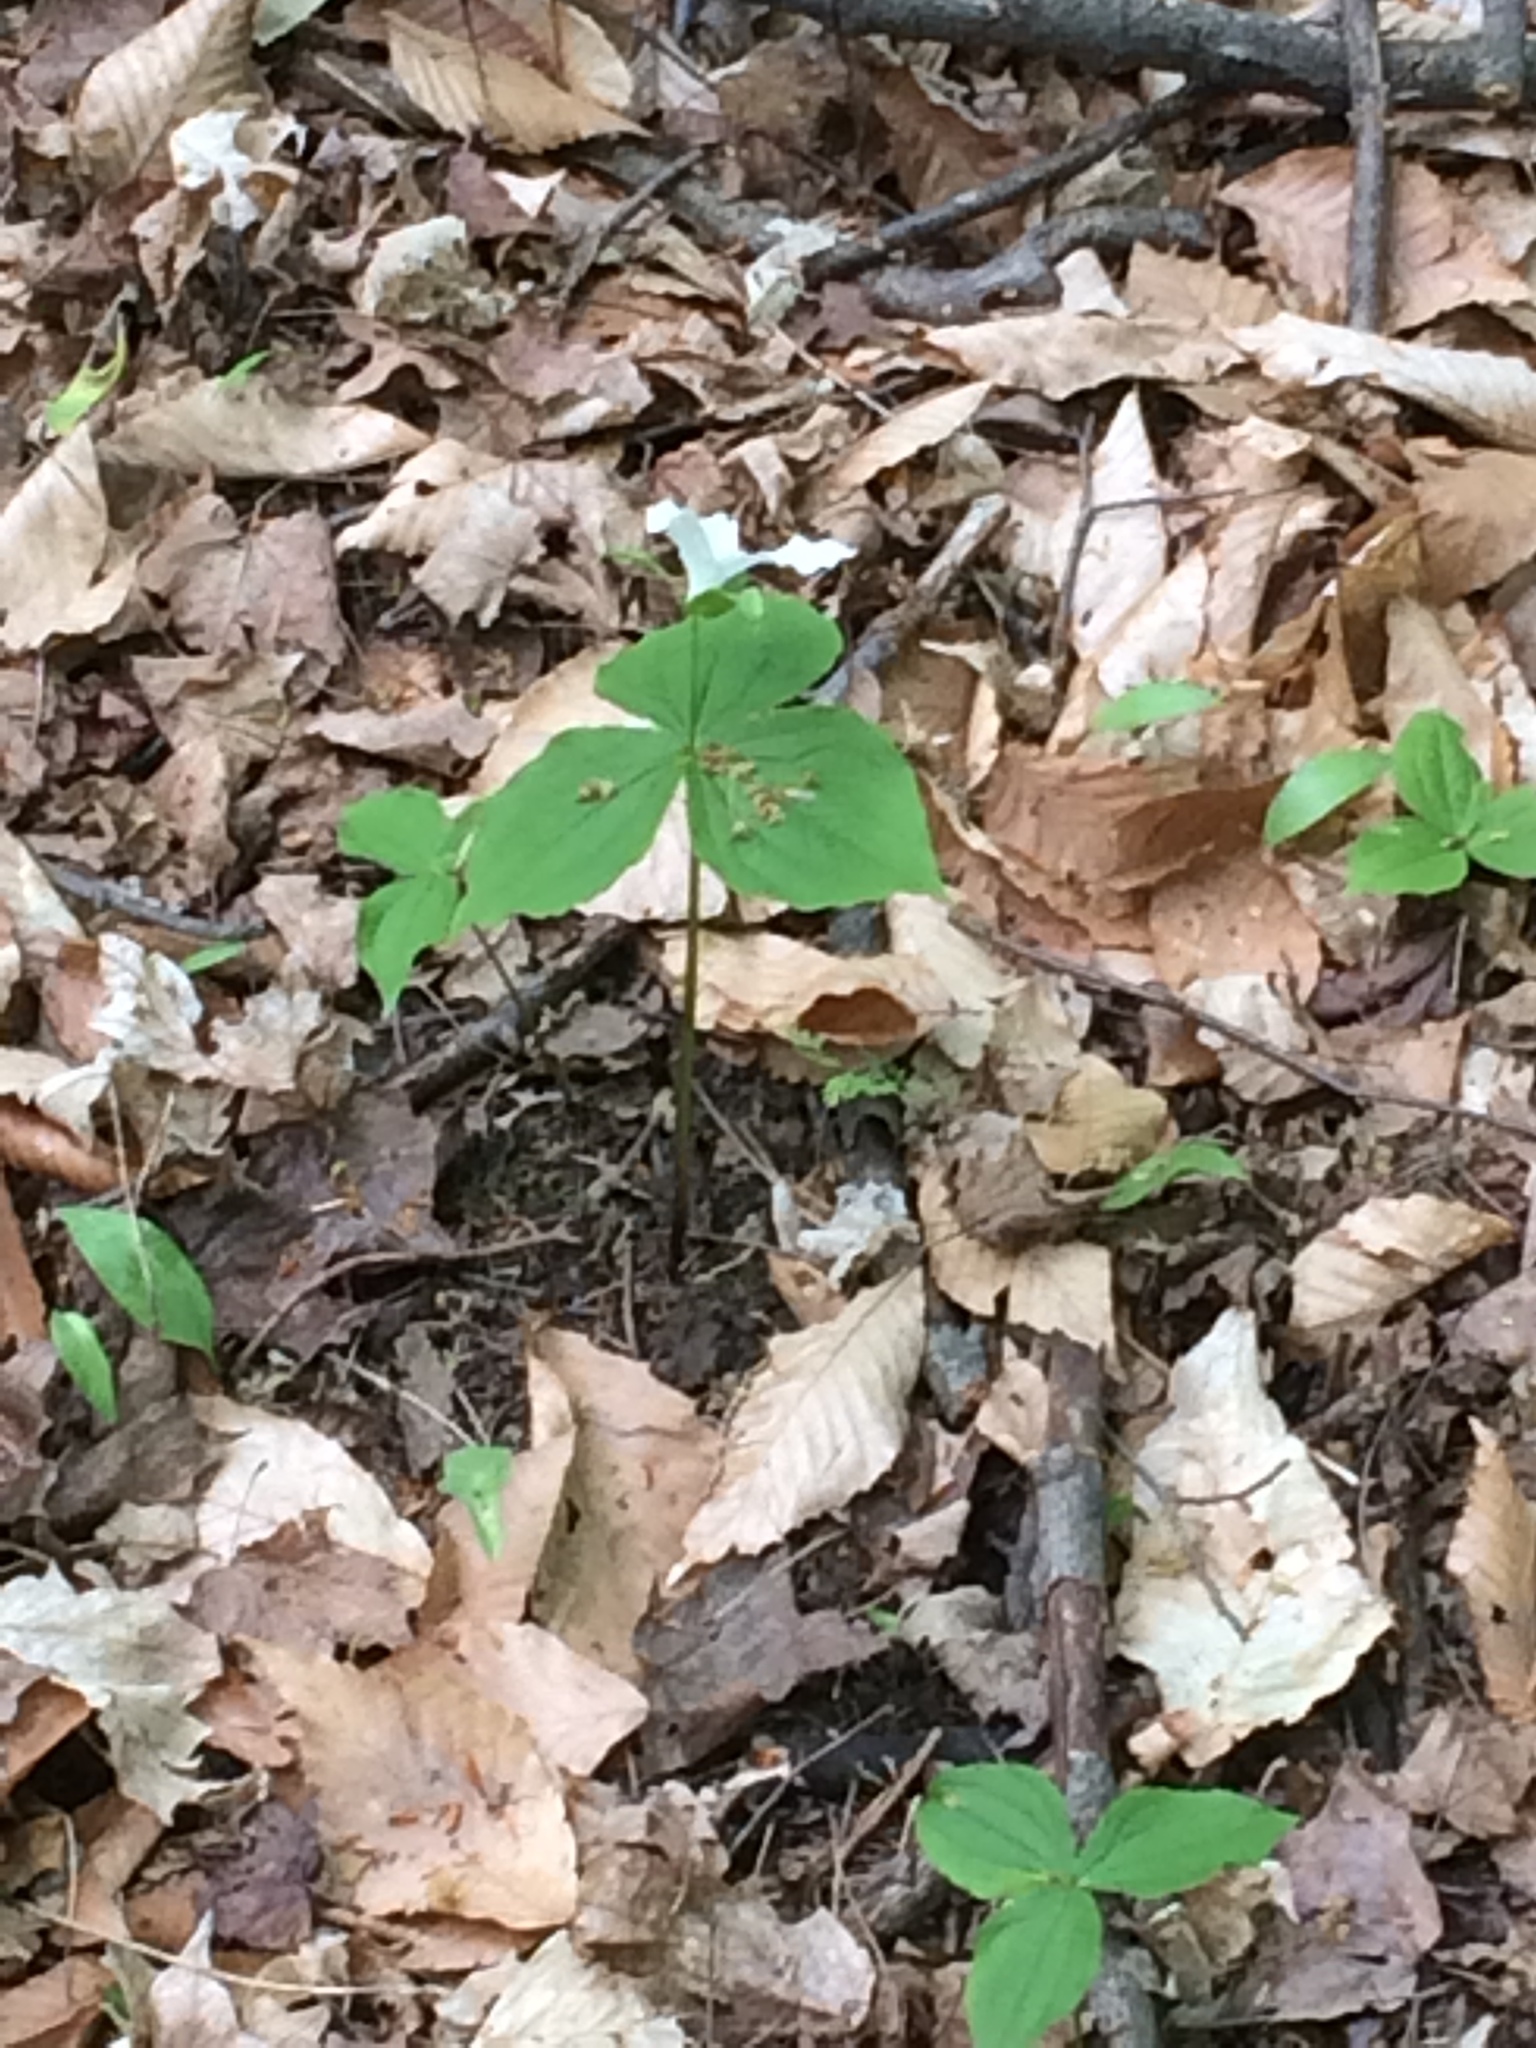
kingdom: Plantae
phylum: Tracheophyta
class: Liliopsida
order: Liliales
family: Melanthiaceae
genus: Trillium
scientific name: Trillium grandiflorum
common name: Great white trillium
